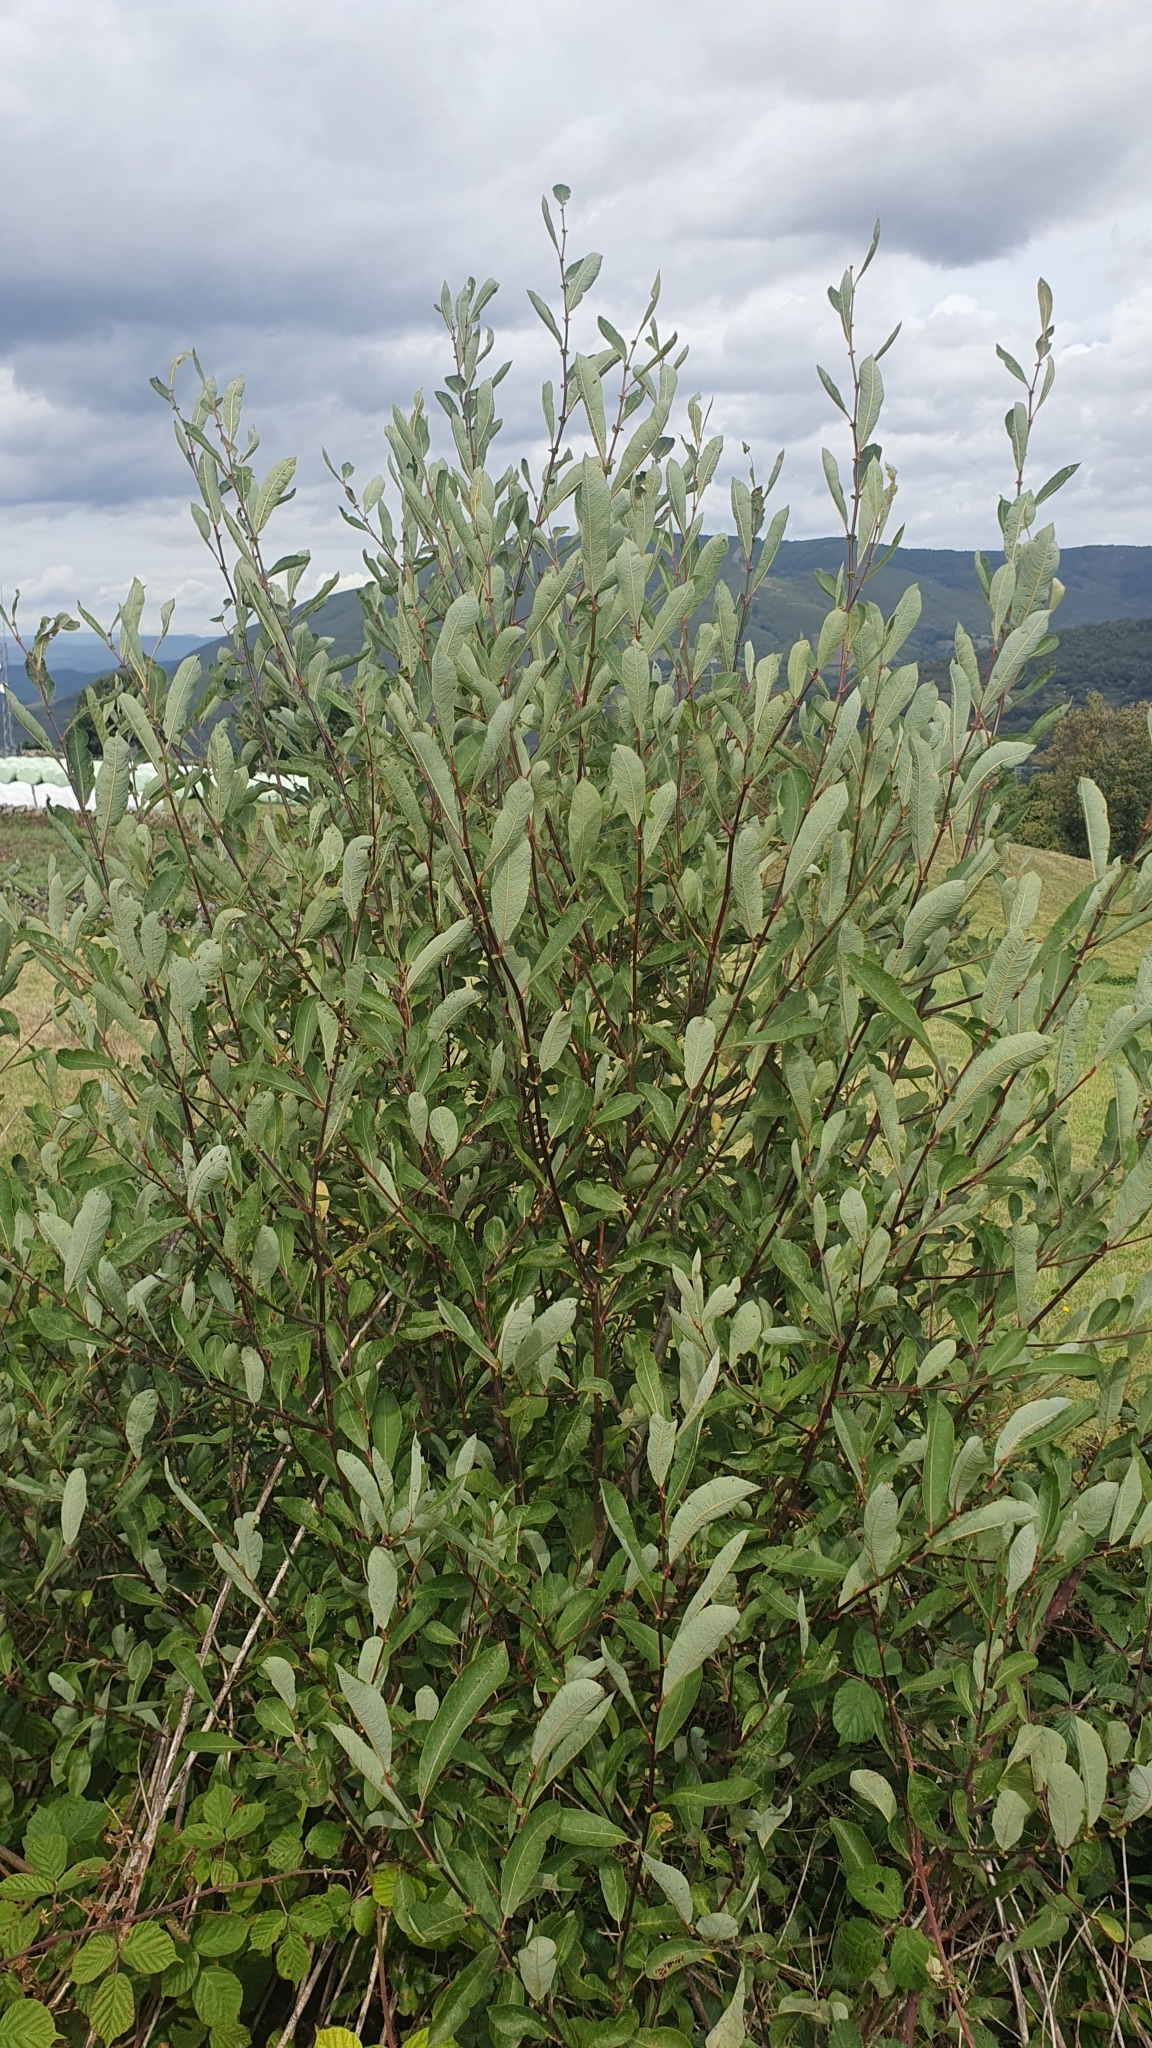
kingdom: Plantae
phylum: Tracheophyta
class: Magnoliopsida
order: Malpighiales
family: Salicaceae
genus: Salix
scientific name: Salix atrocinerea
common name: Rusty willow
